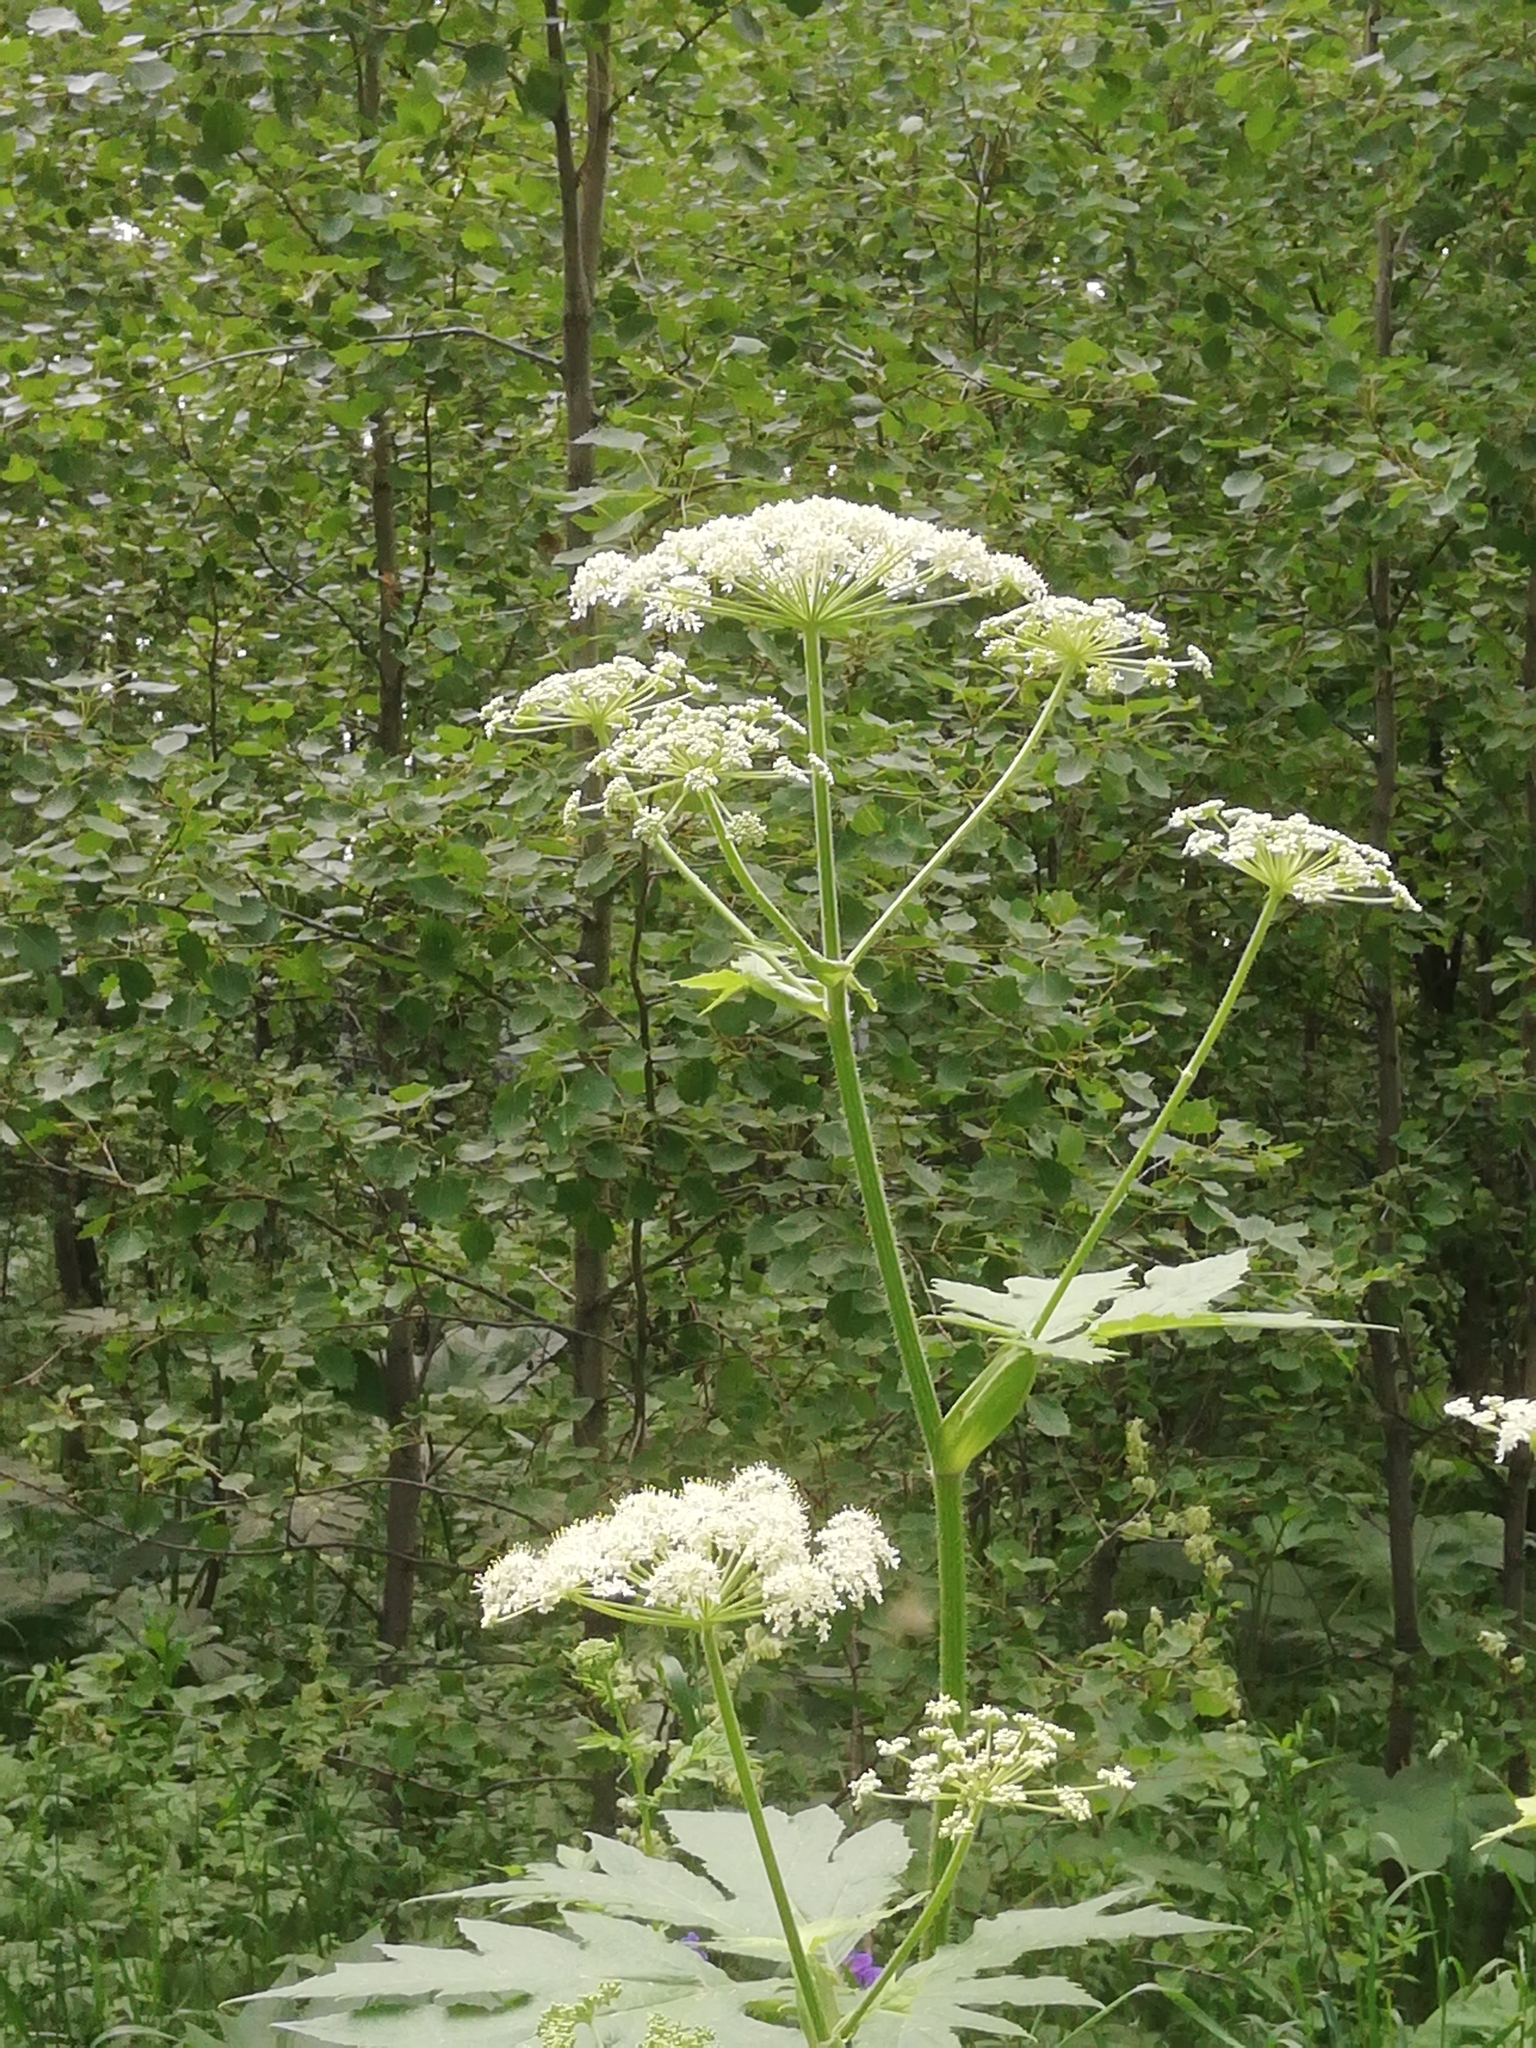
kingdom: Plantae
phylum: Tracheophyta
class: Magnoliopsida
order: Apiales
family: Apiaceae
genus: Heracleum
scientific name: Heracleum dissectum
